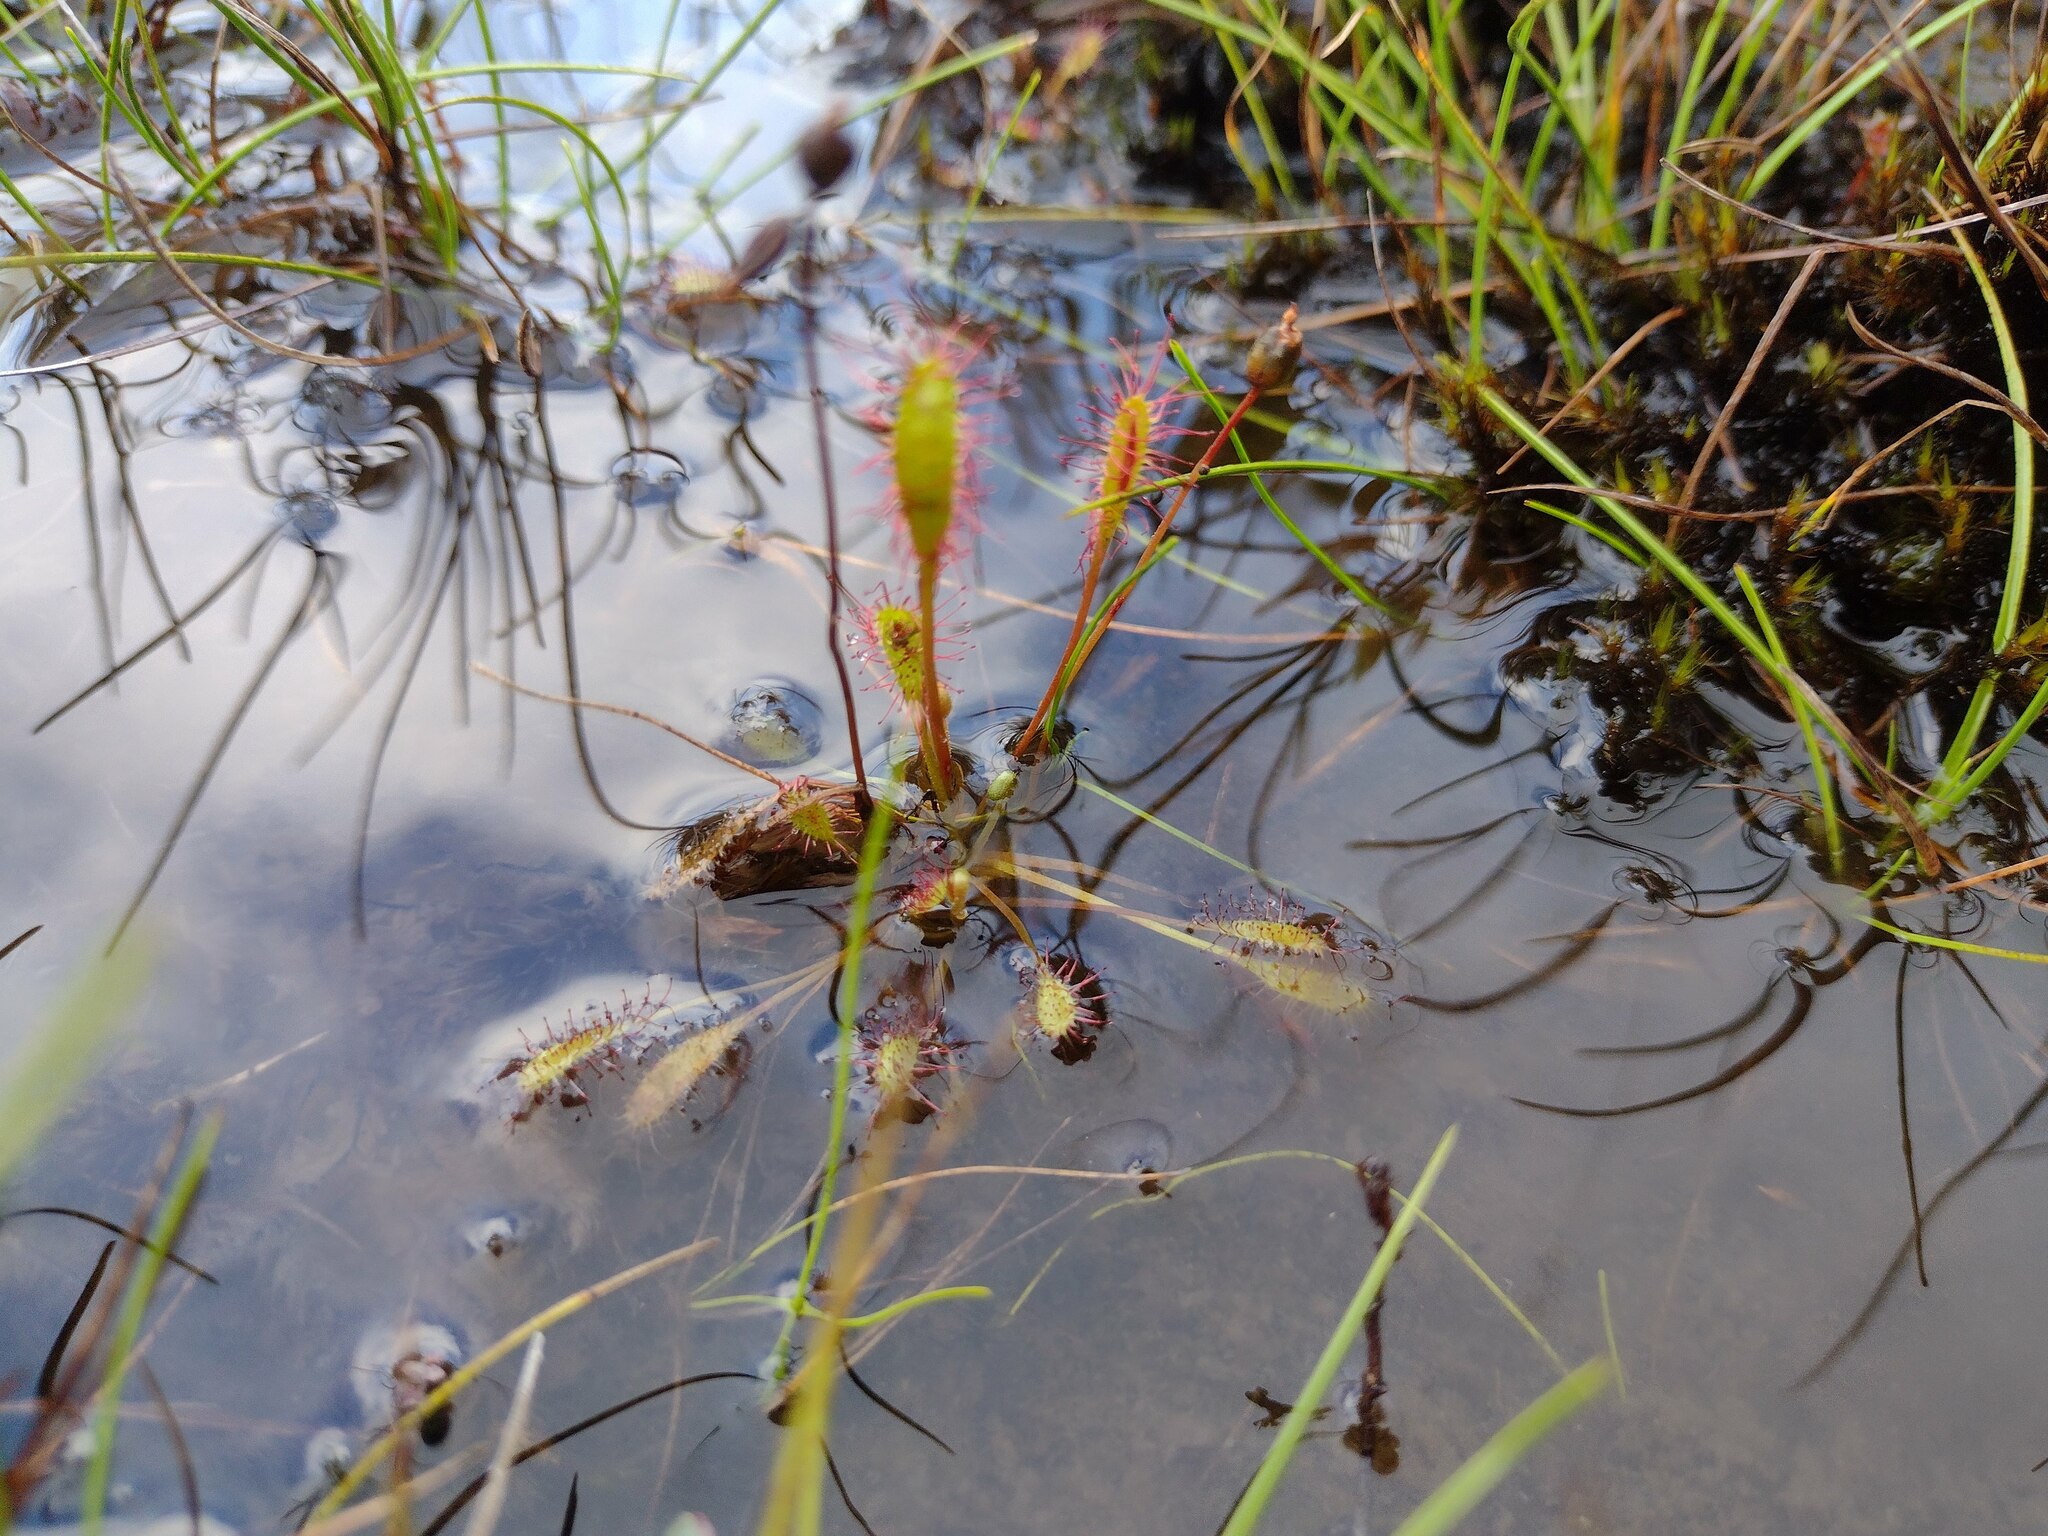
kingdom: Plantae
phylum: Tracheophyta
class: Magnoliopsida
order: Caryophyllales
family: Droseraceae
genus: Drosera
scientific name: Drosera anglica
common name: Great sundew
